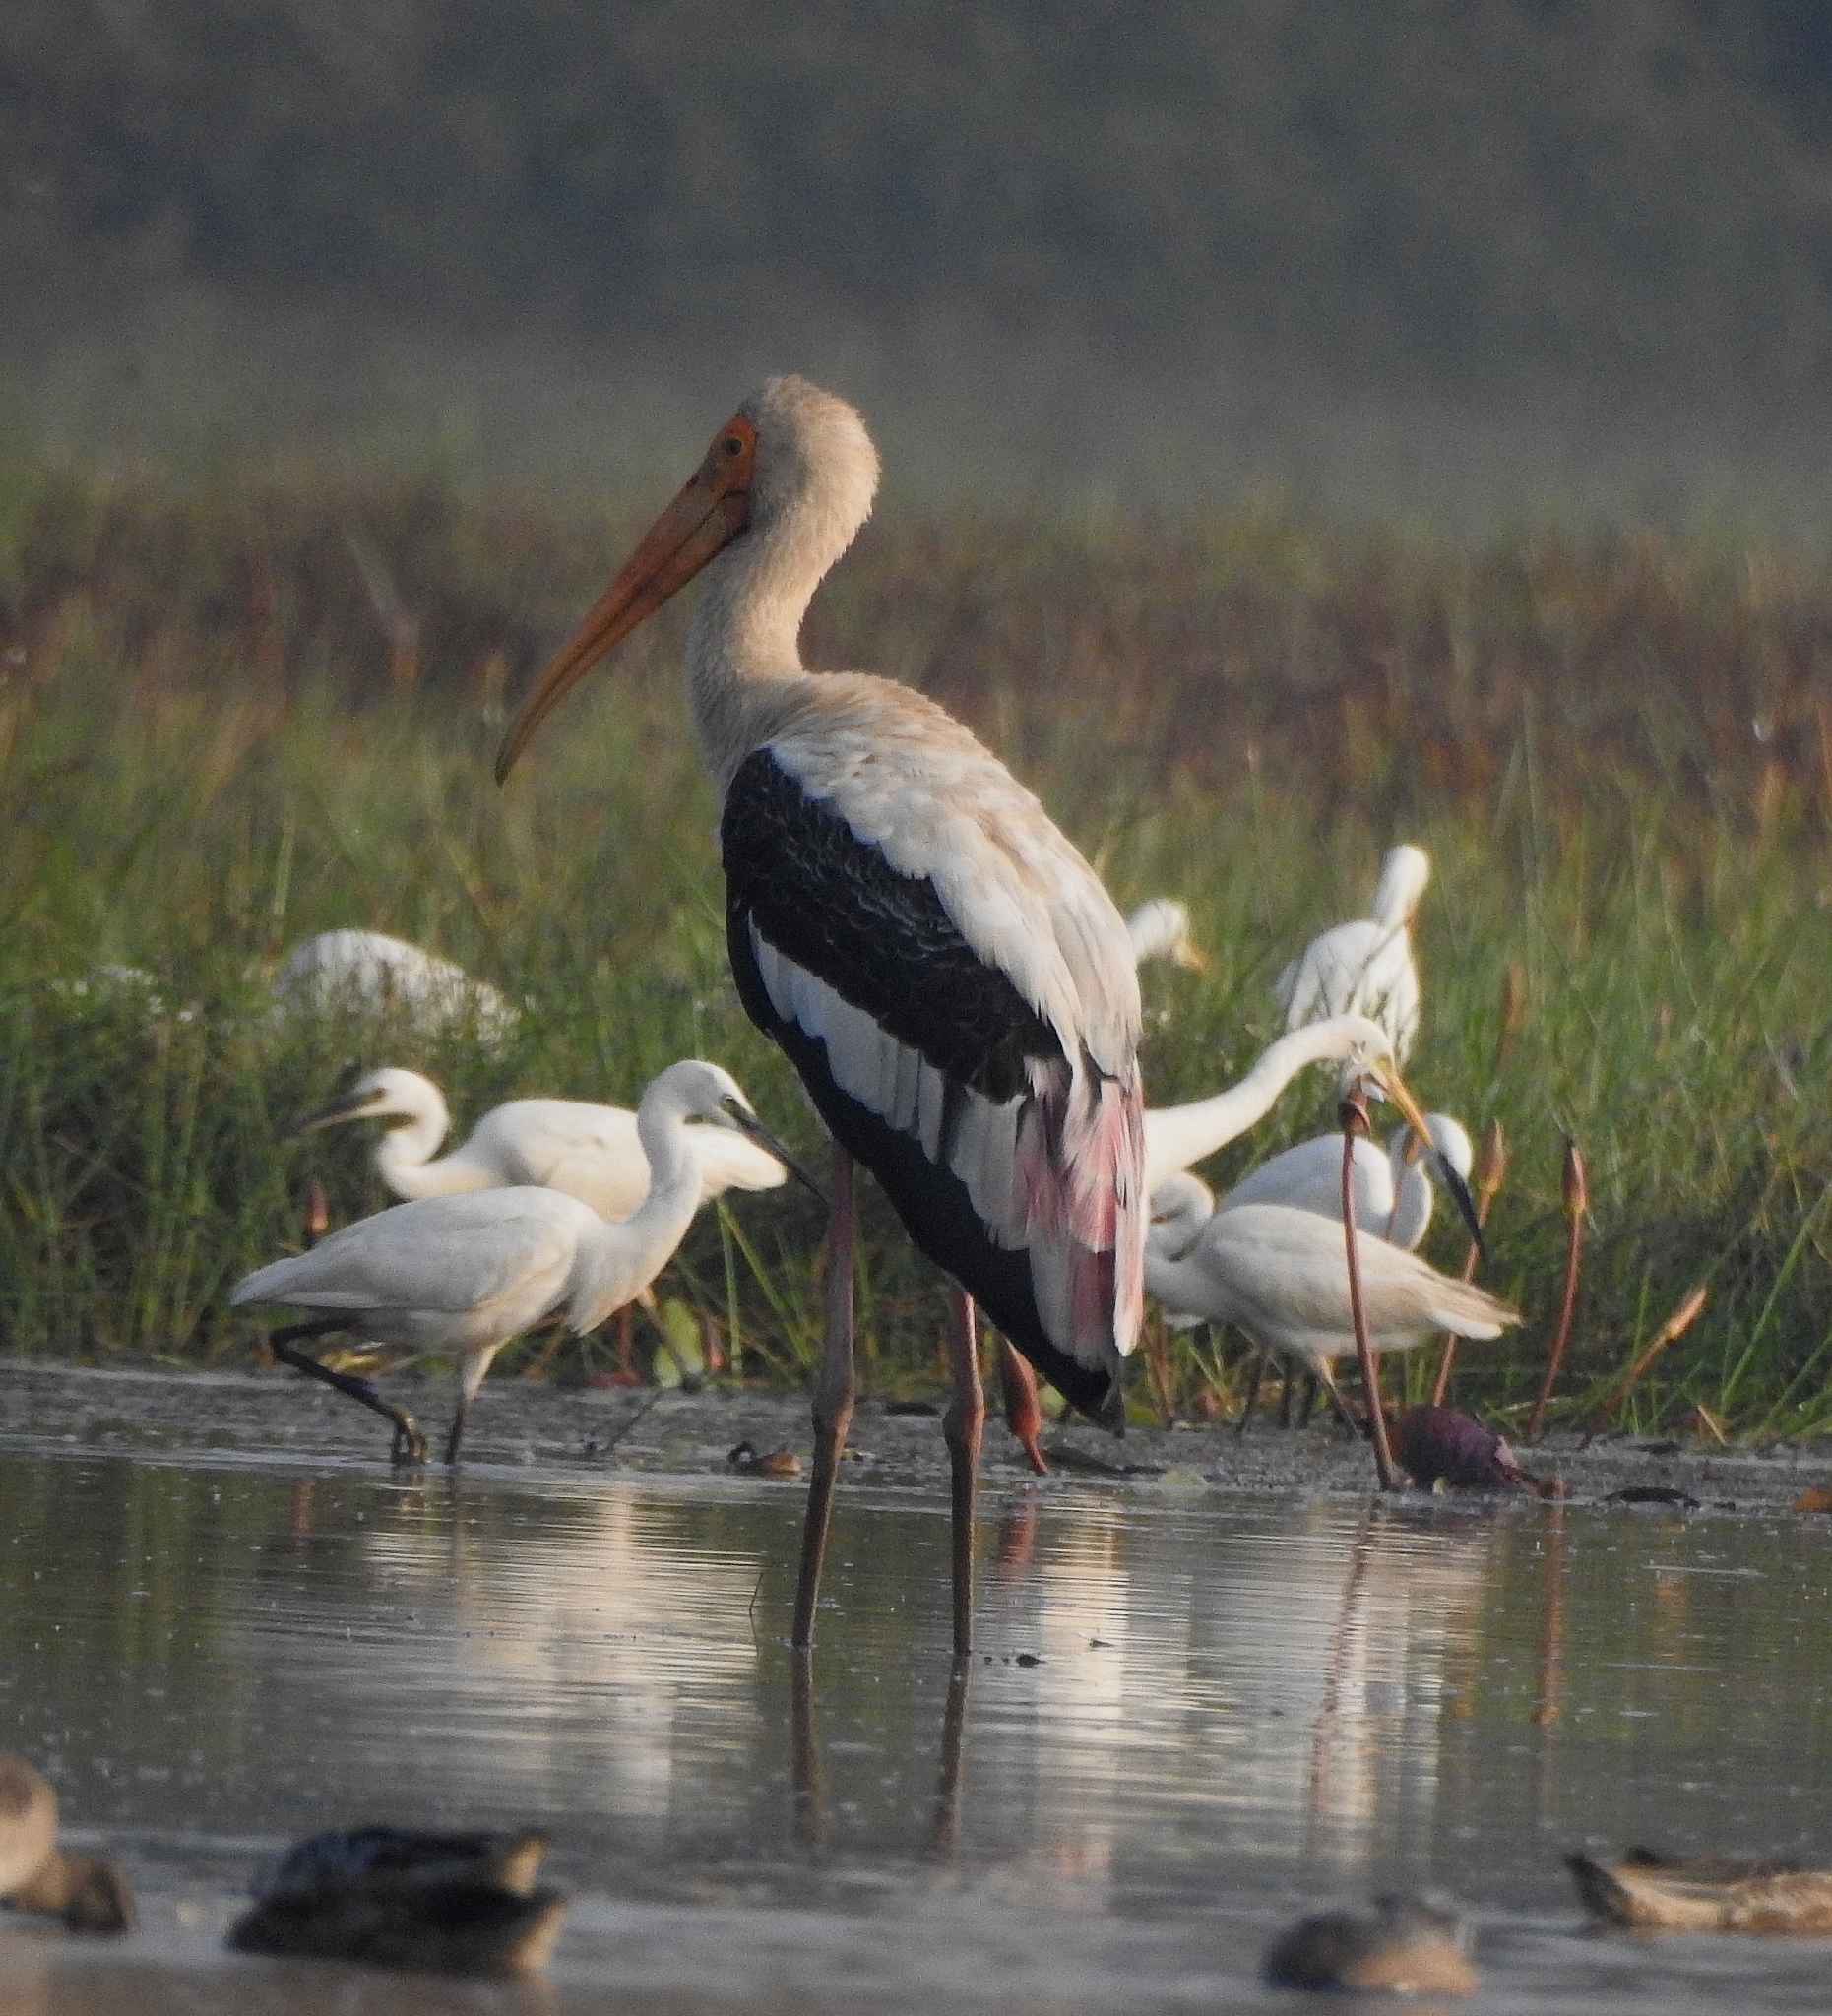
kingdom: Animalia
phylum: Chordata
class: Aves
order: Ciconiiformes
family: Ciconiidae
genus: Mycteria
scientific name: Mycteria leucocephala
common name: Painted stork
